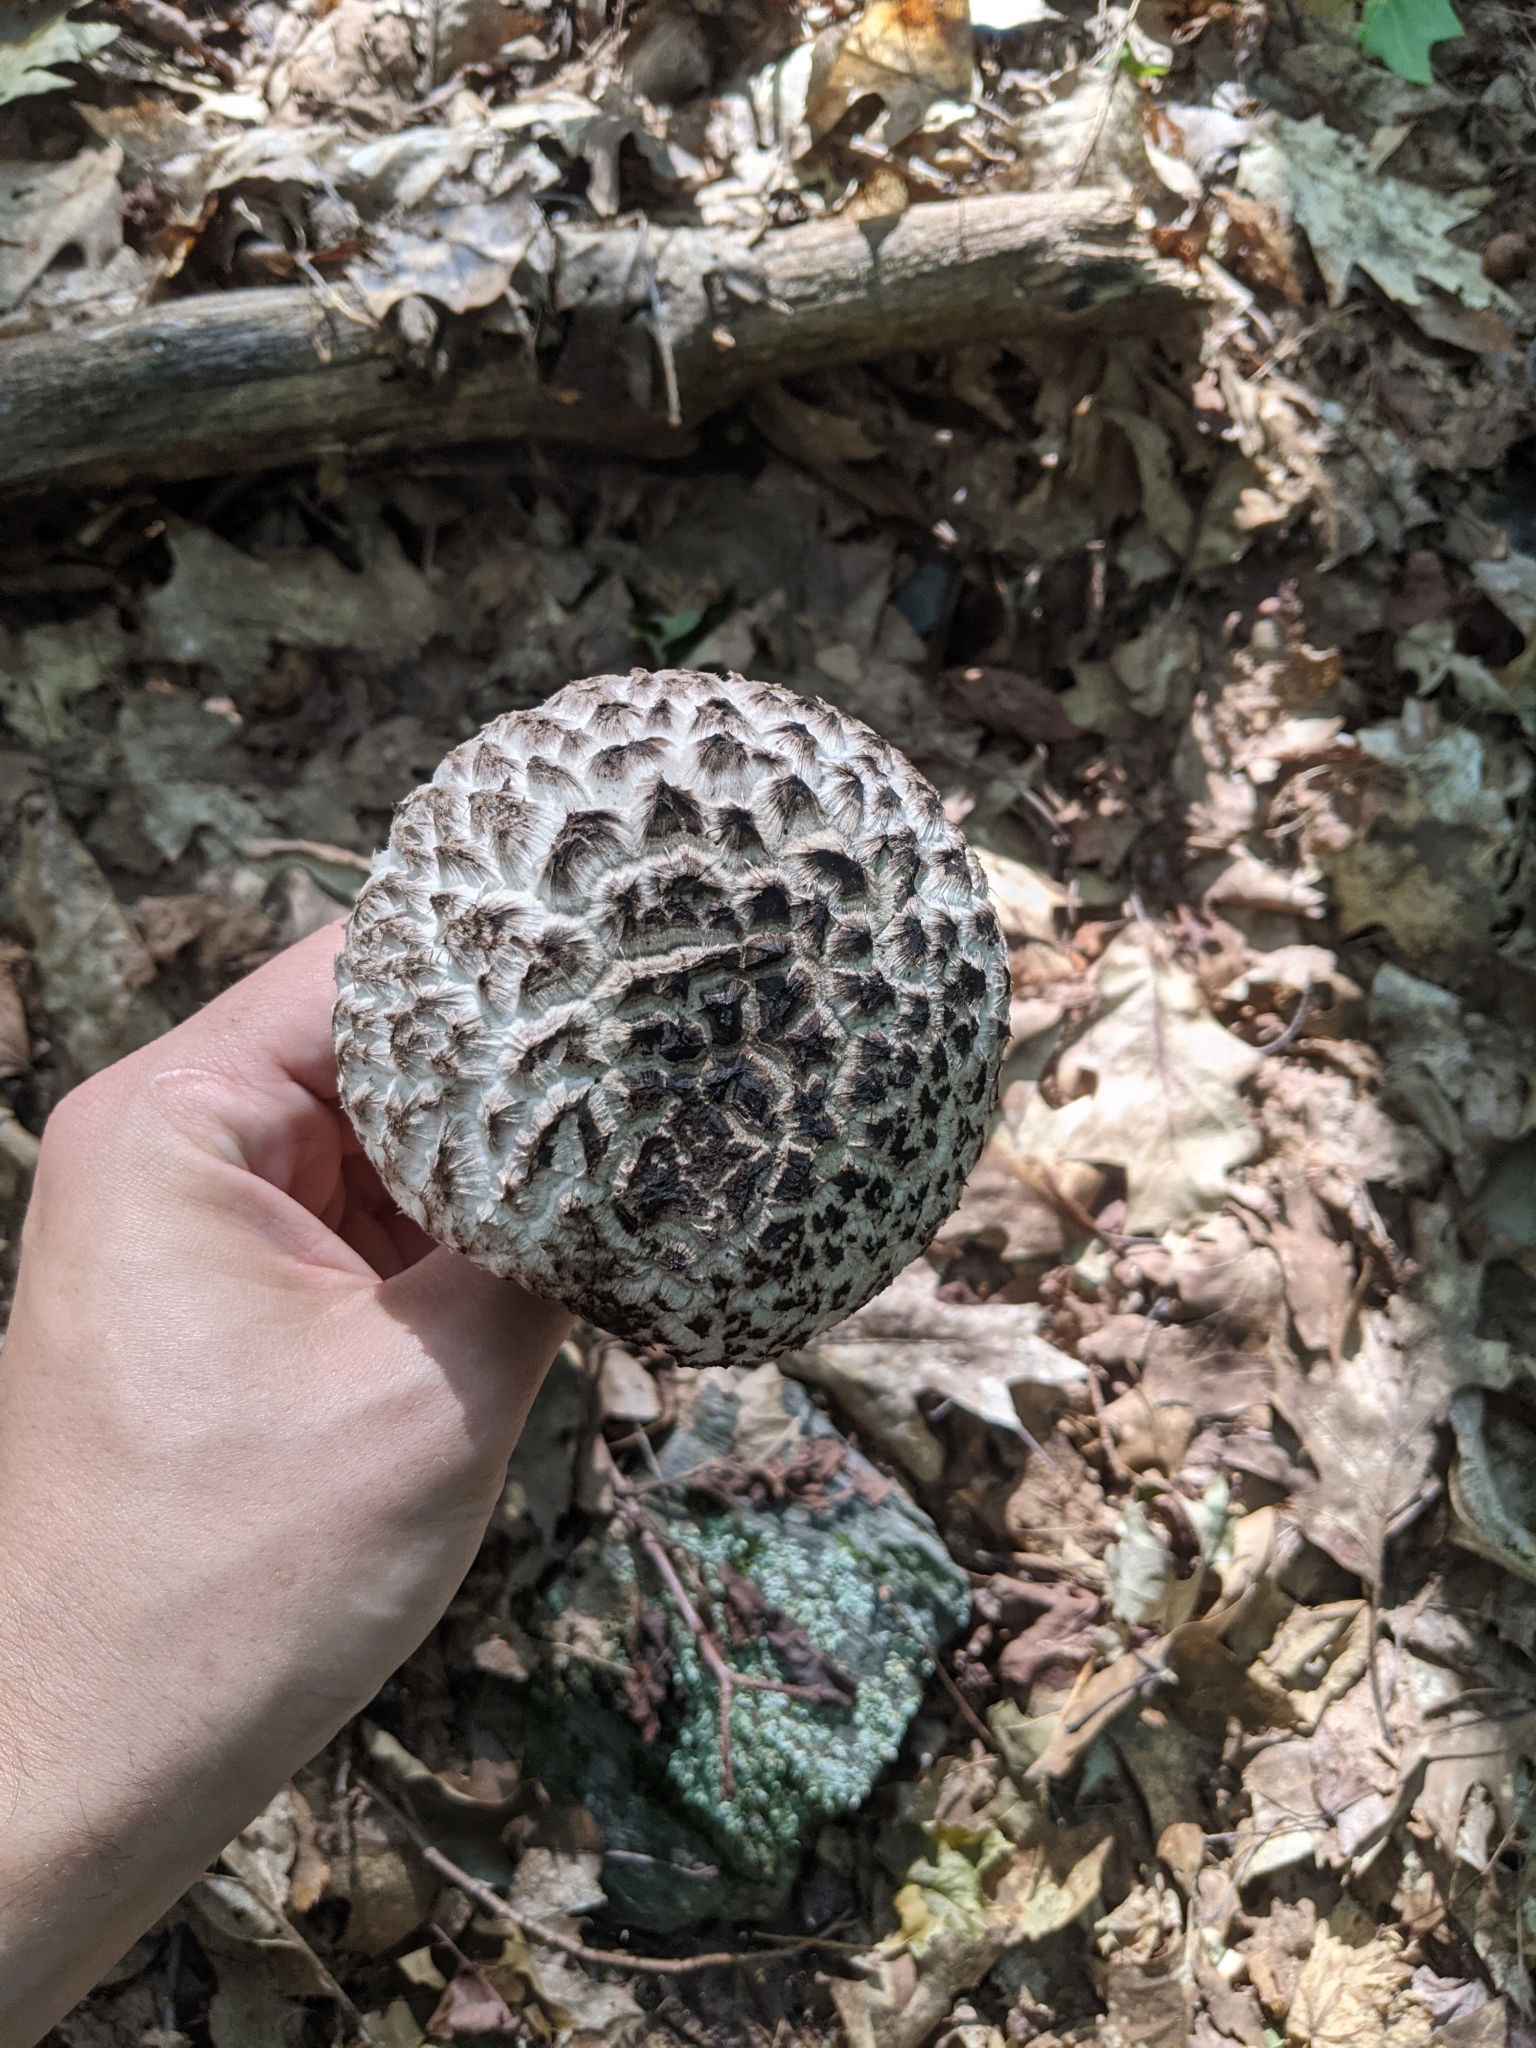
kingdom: Fungi
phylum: Basidiomycota
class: Agaricomycetes
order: Boletales
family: Boletaceae
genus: Strobilomyces
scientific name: Strobilomyces strobilaceus
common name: Old man of the woods
